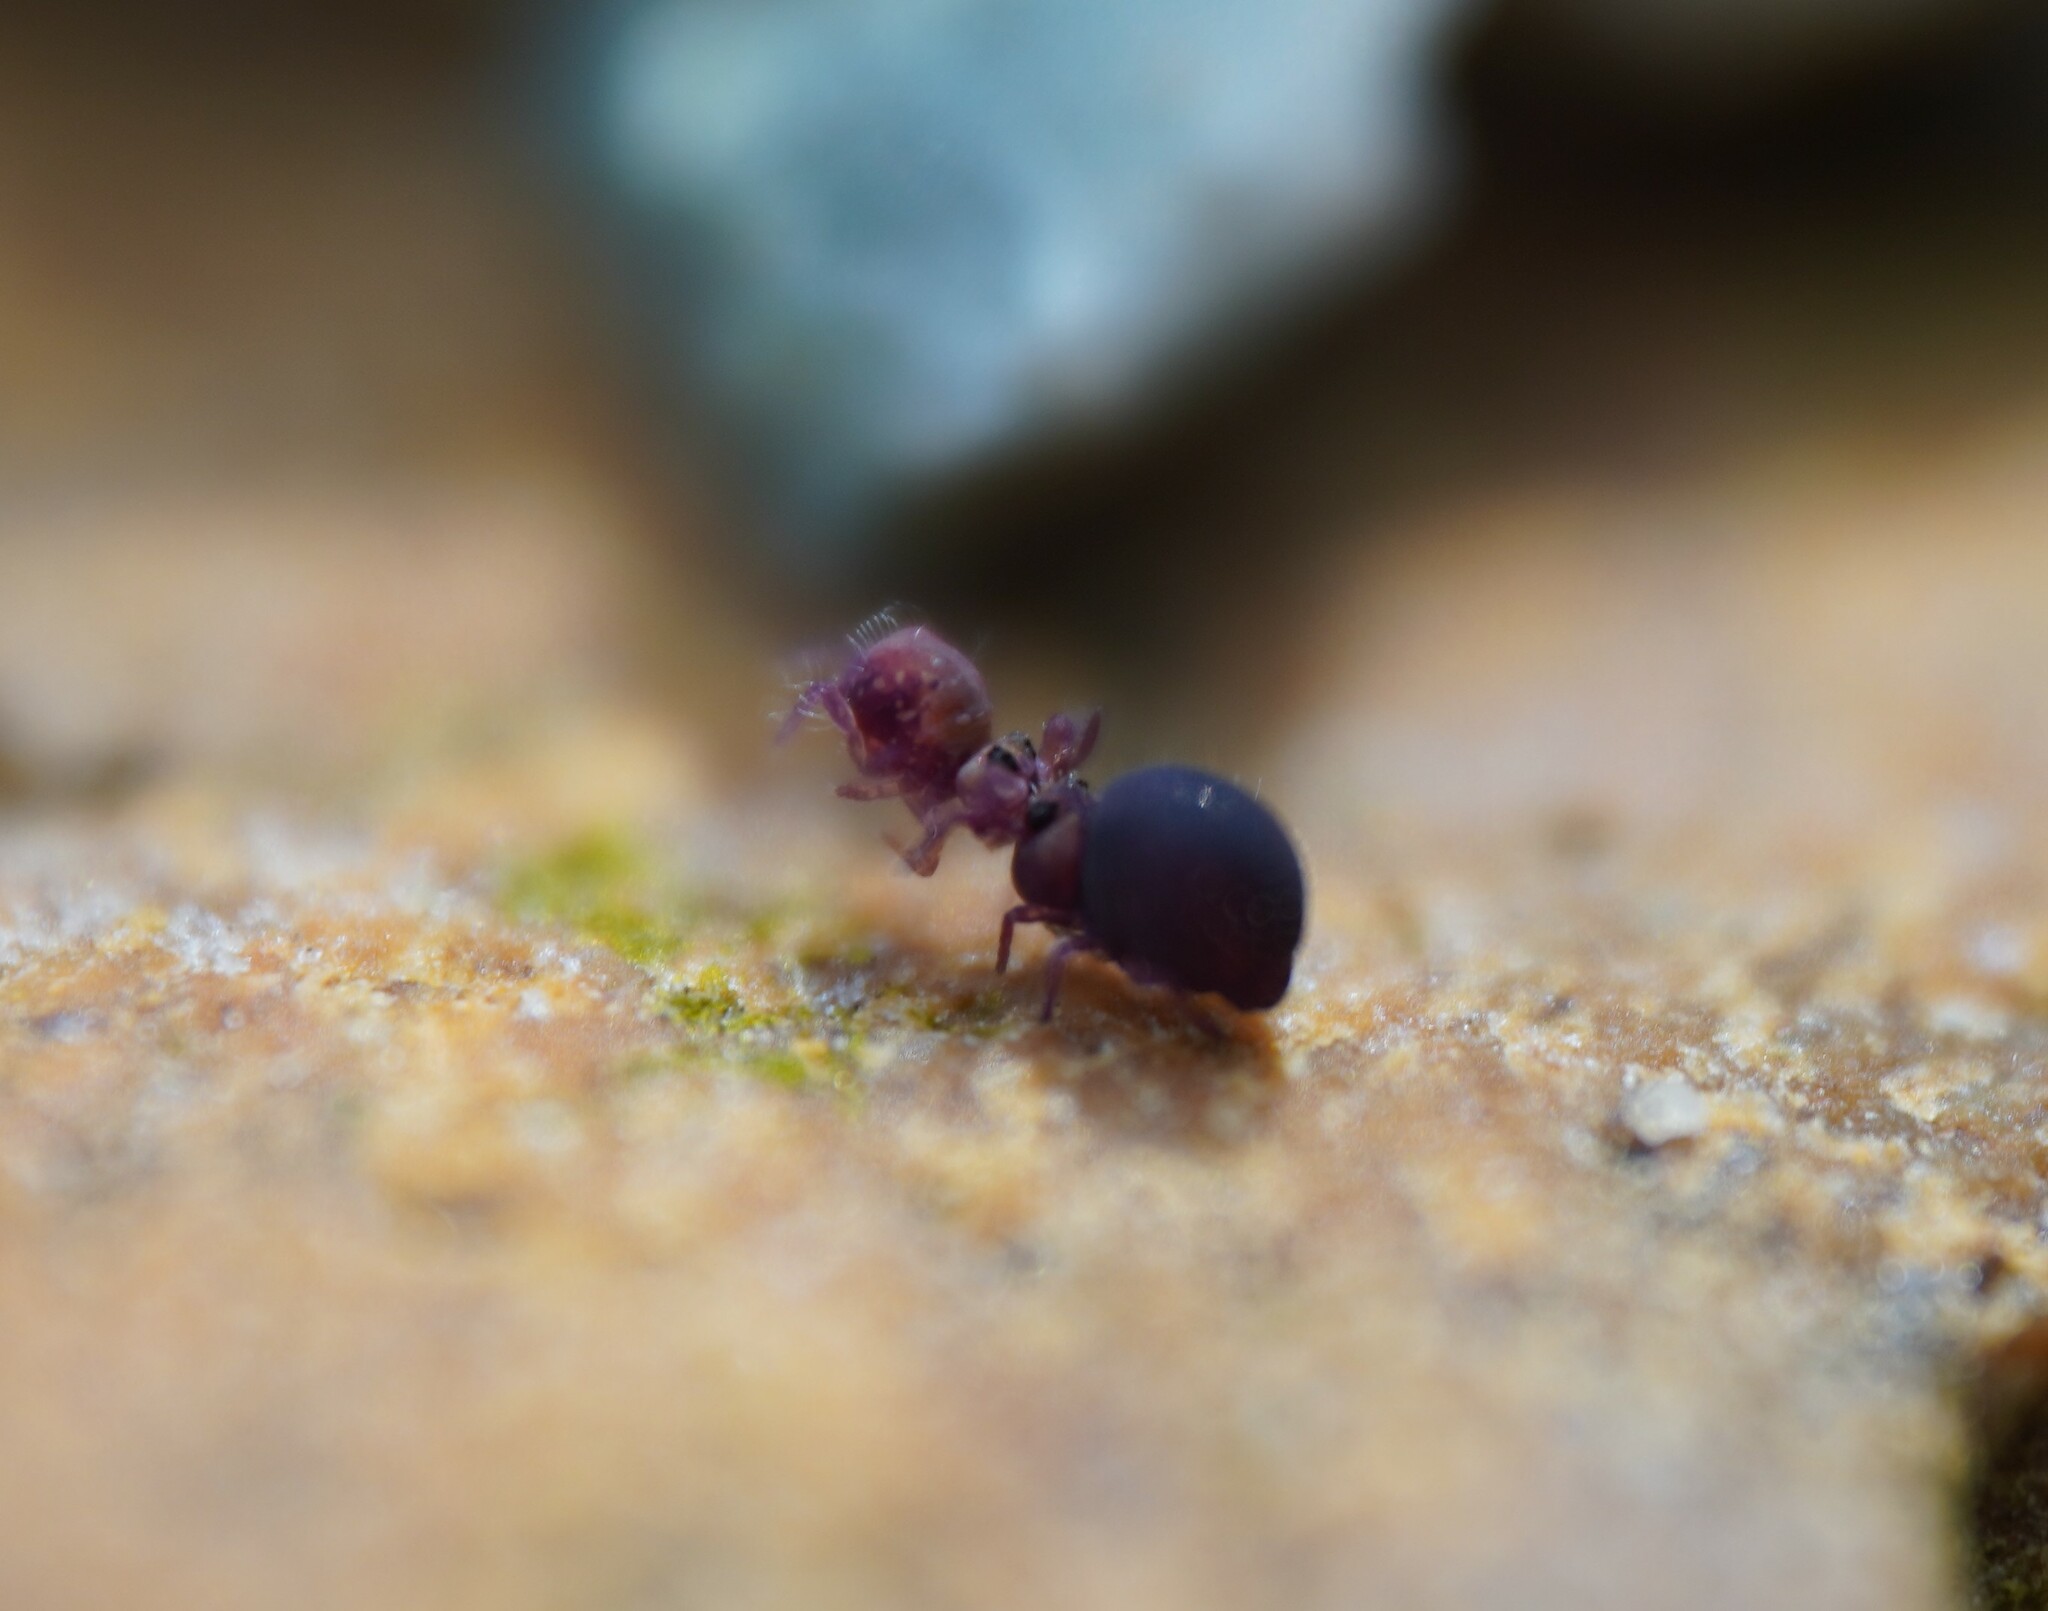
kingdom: Animalia
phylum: Arthropoda
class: Collembola
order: Symphypleona
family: Sminthurididae
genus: Stenacidia
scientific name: Stenacidia violacea
